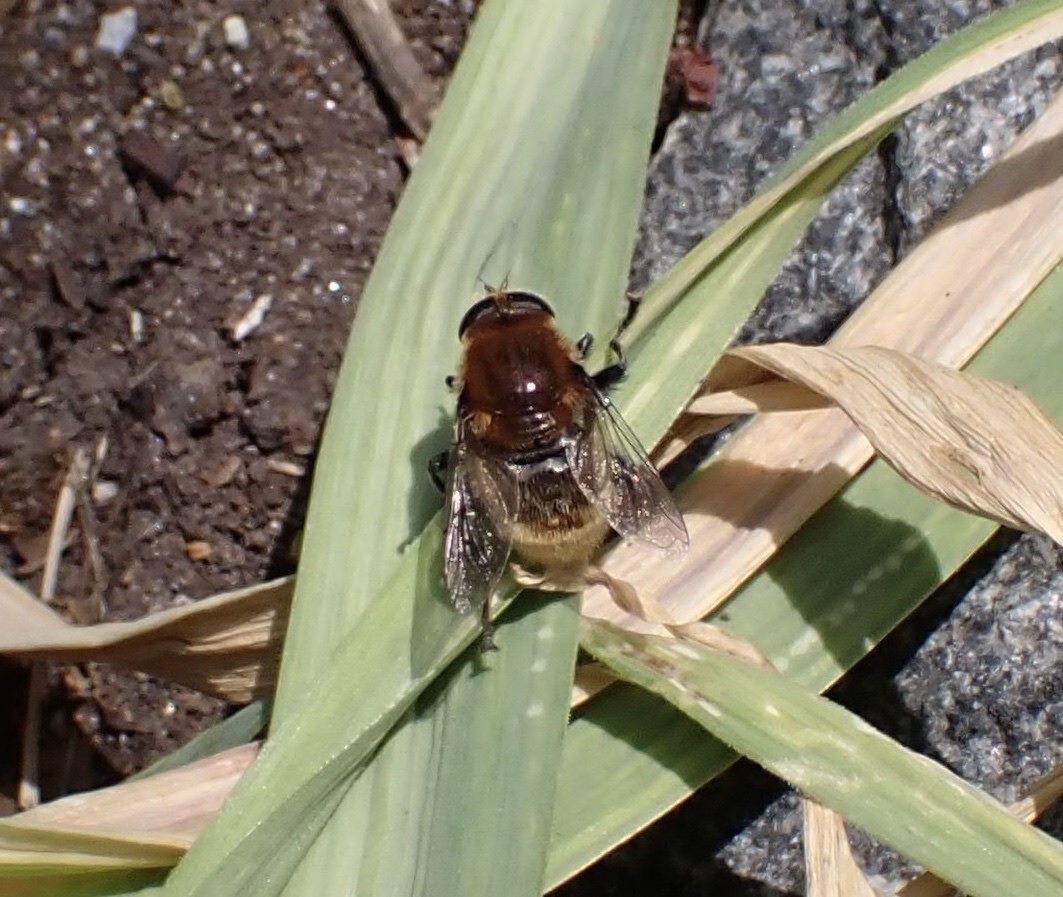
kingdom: Animalia
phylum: Arthropoda
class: Insecta
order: Diptera
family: Syrphidae
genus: Merodon
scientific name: Merodon equestris
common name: Greater bulb-fly
